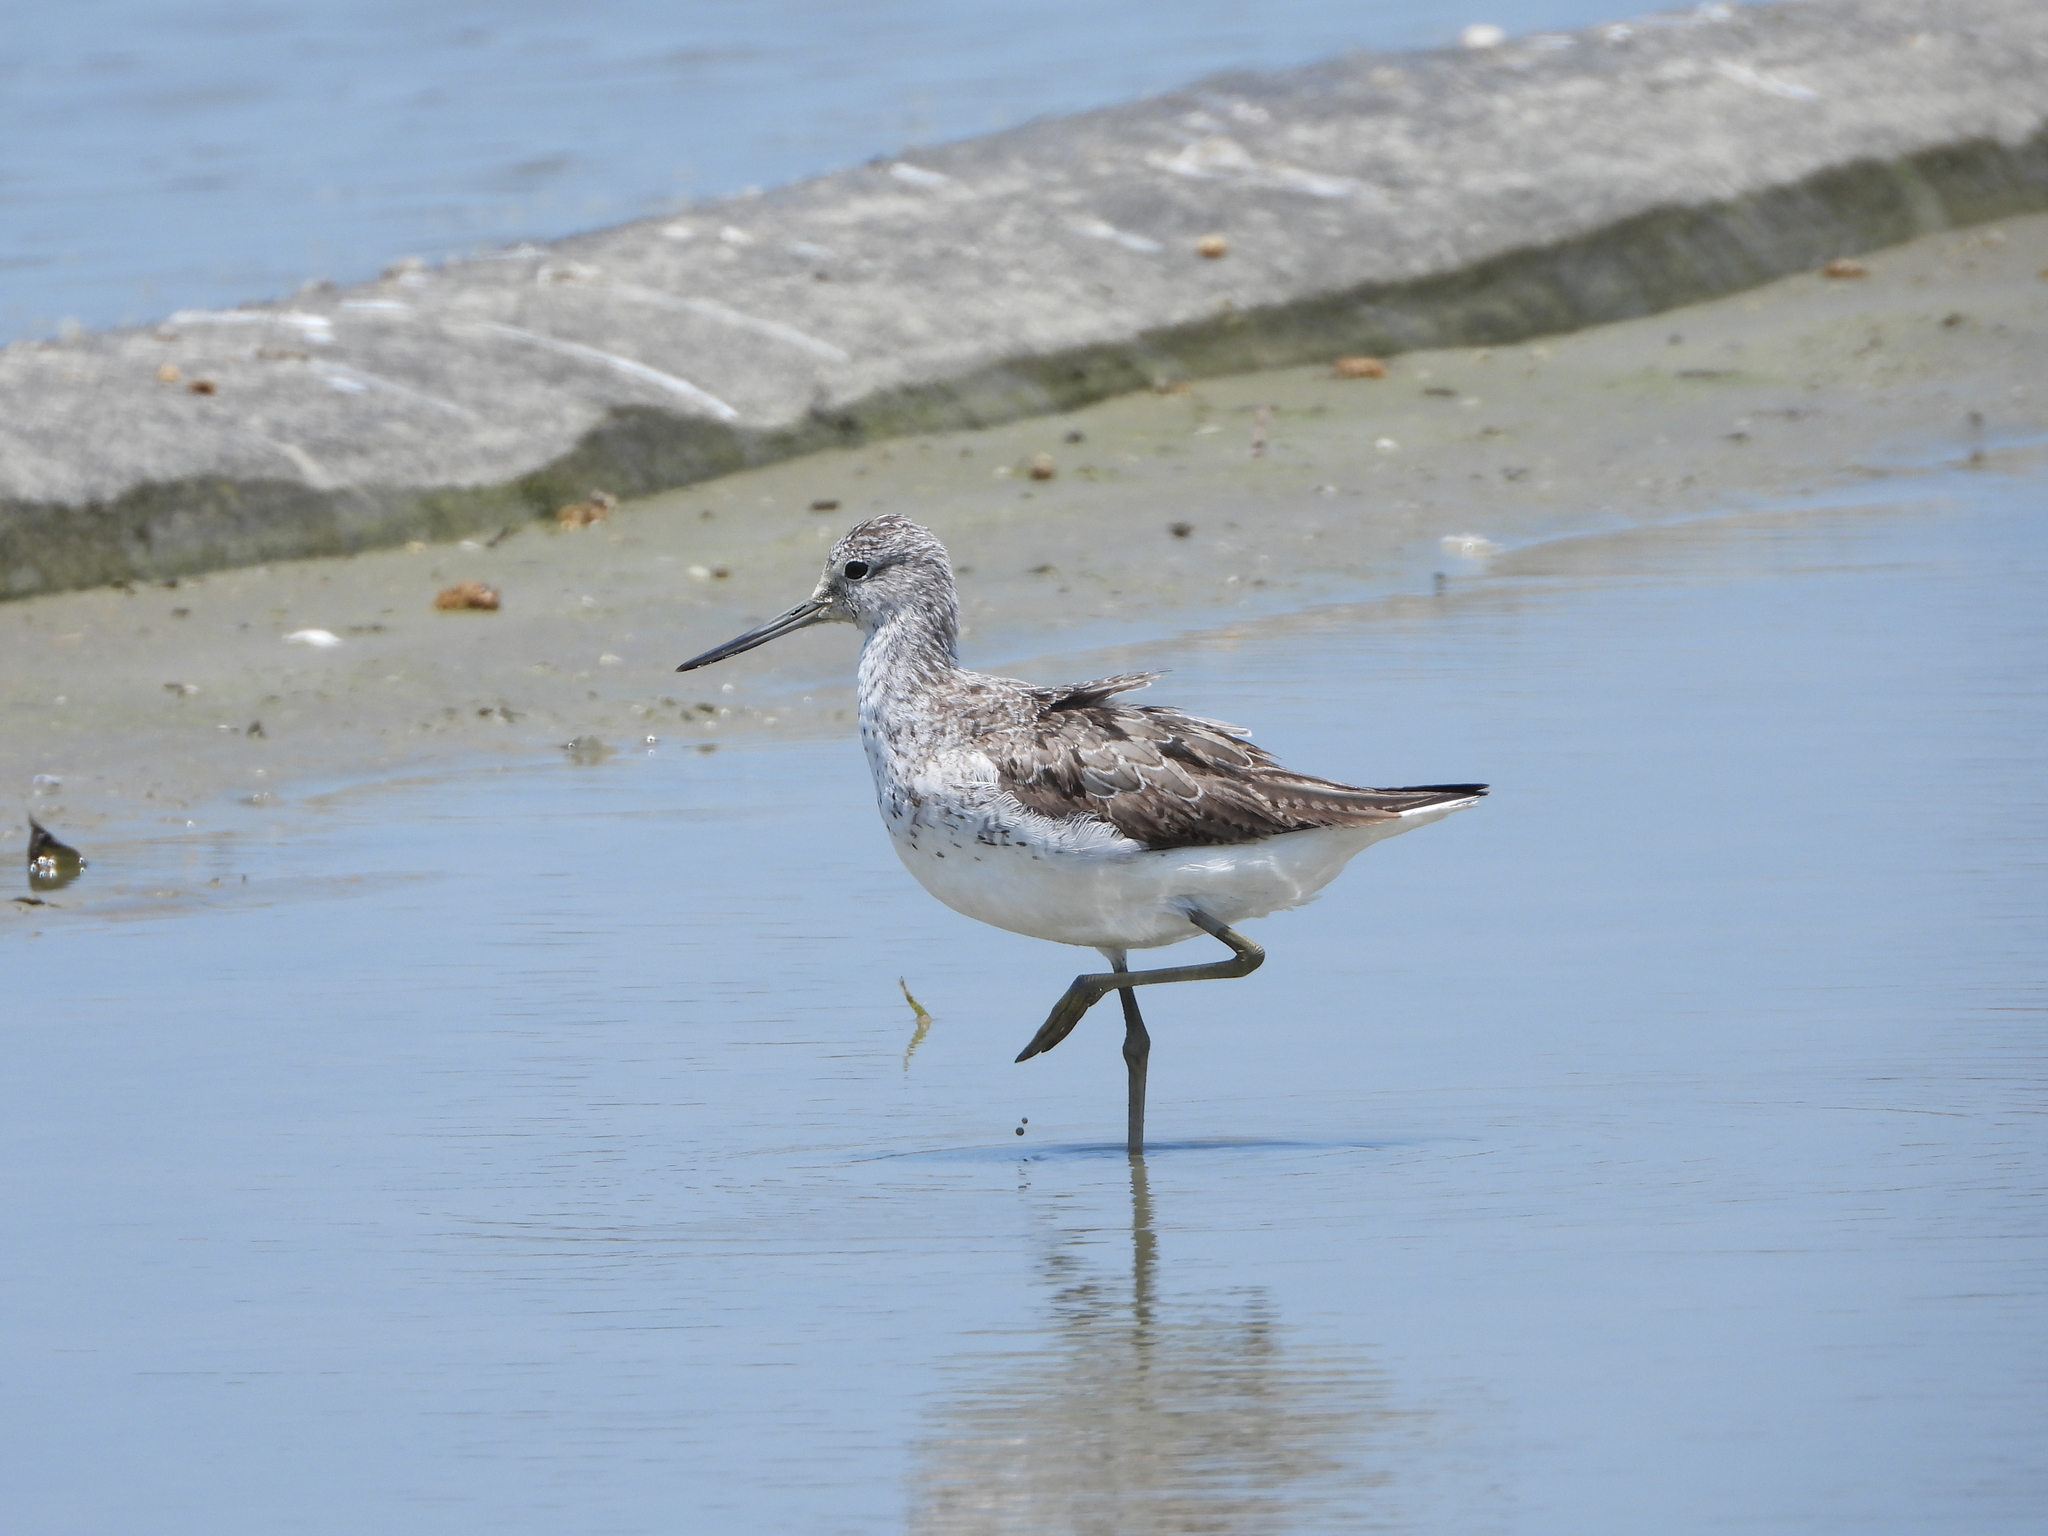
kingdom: Animalia
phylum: Chordata
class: Aves
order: Charadriiformes
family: Scolopacidae
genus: Tringa
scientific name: Tringa nebularia
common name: Common greenshank
